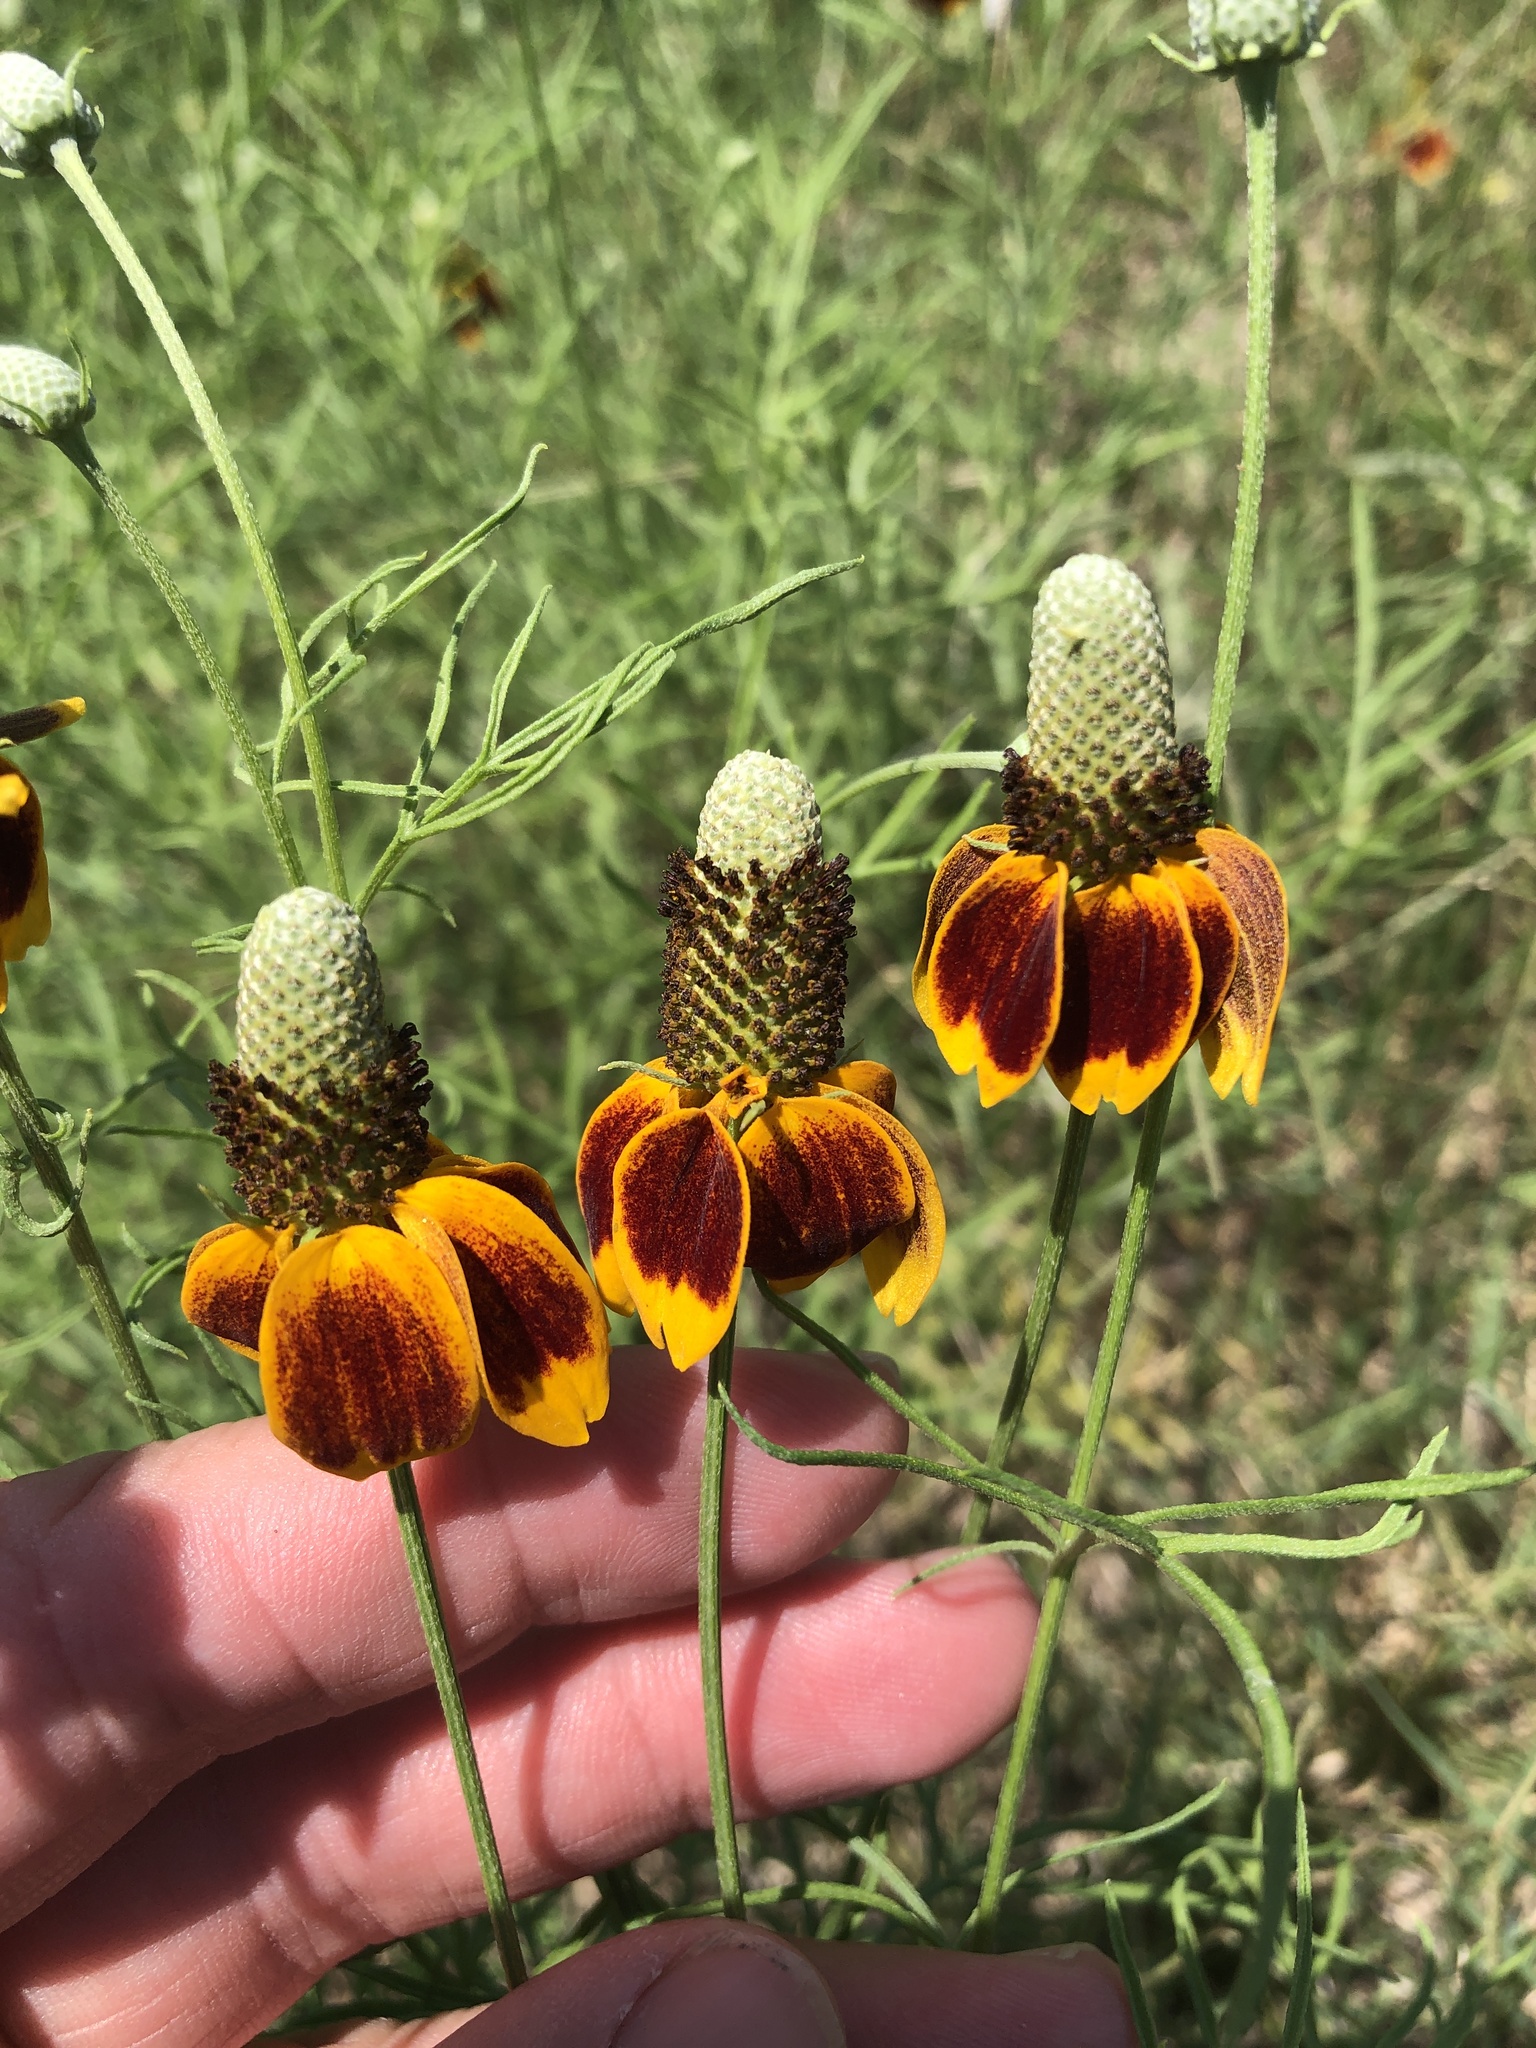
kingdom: Plantae
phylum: Tracheophyta
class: Magnoliopsida
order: Asterales
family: Asteraceae
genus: Ratibida
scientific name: Ratibida columnifera
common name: Prairie coneflower
